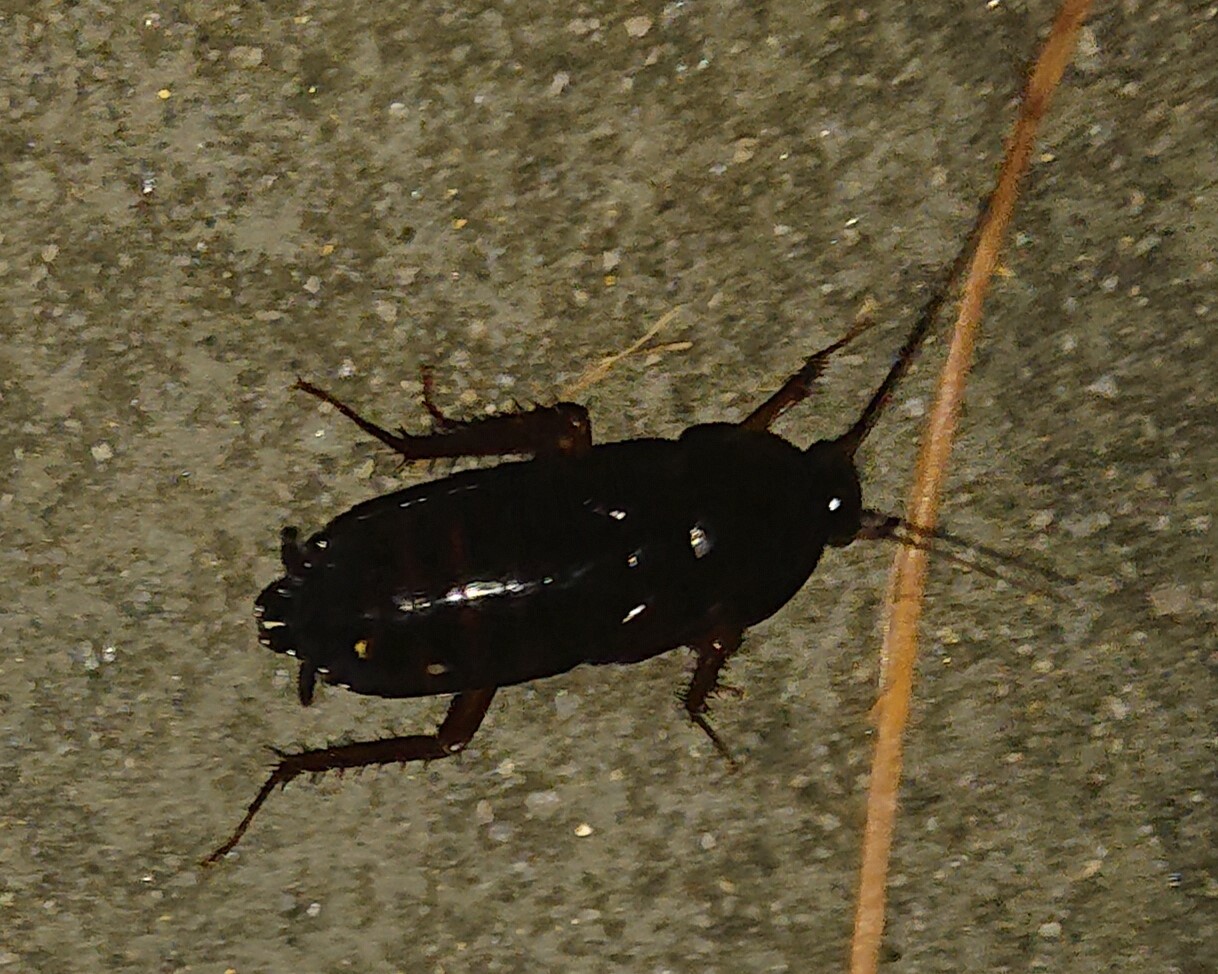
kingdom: Animalia
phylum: Arthropoda
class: Insecta
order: Blattodea
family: Blattidae
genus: Blatta
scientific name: Blatta orientalis
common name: Oriental cockroach
